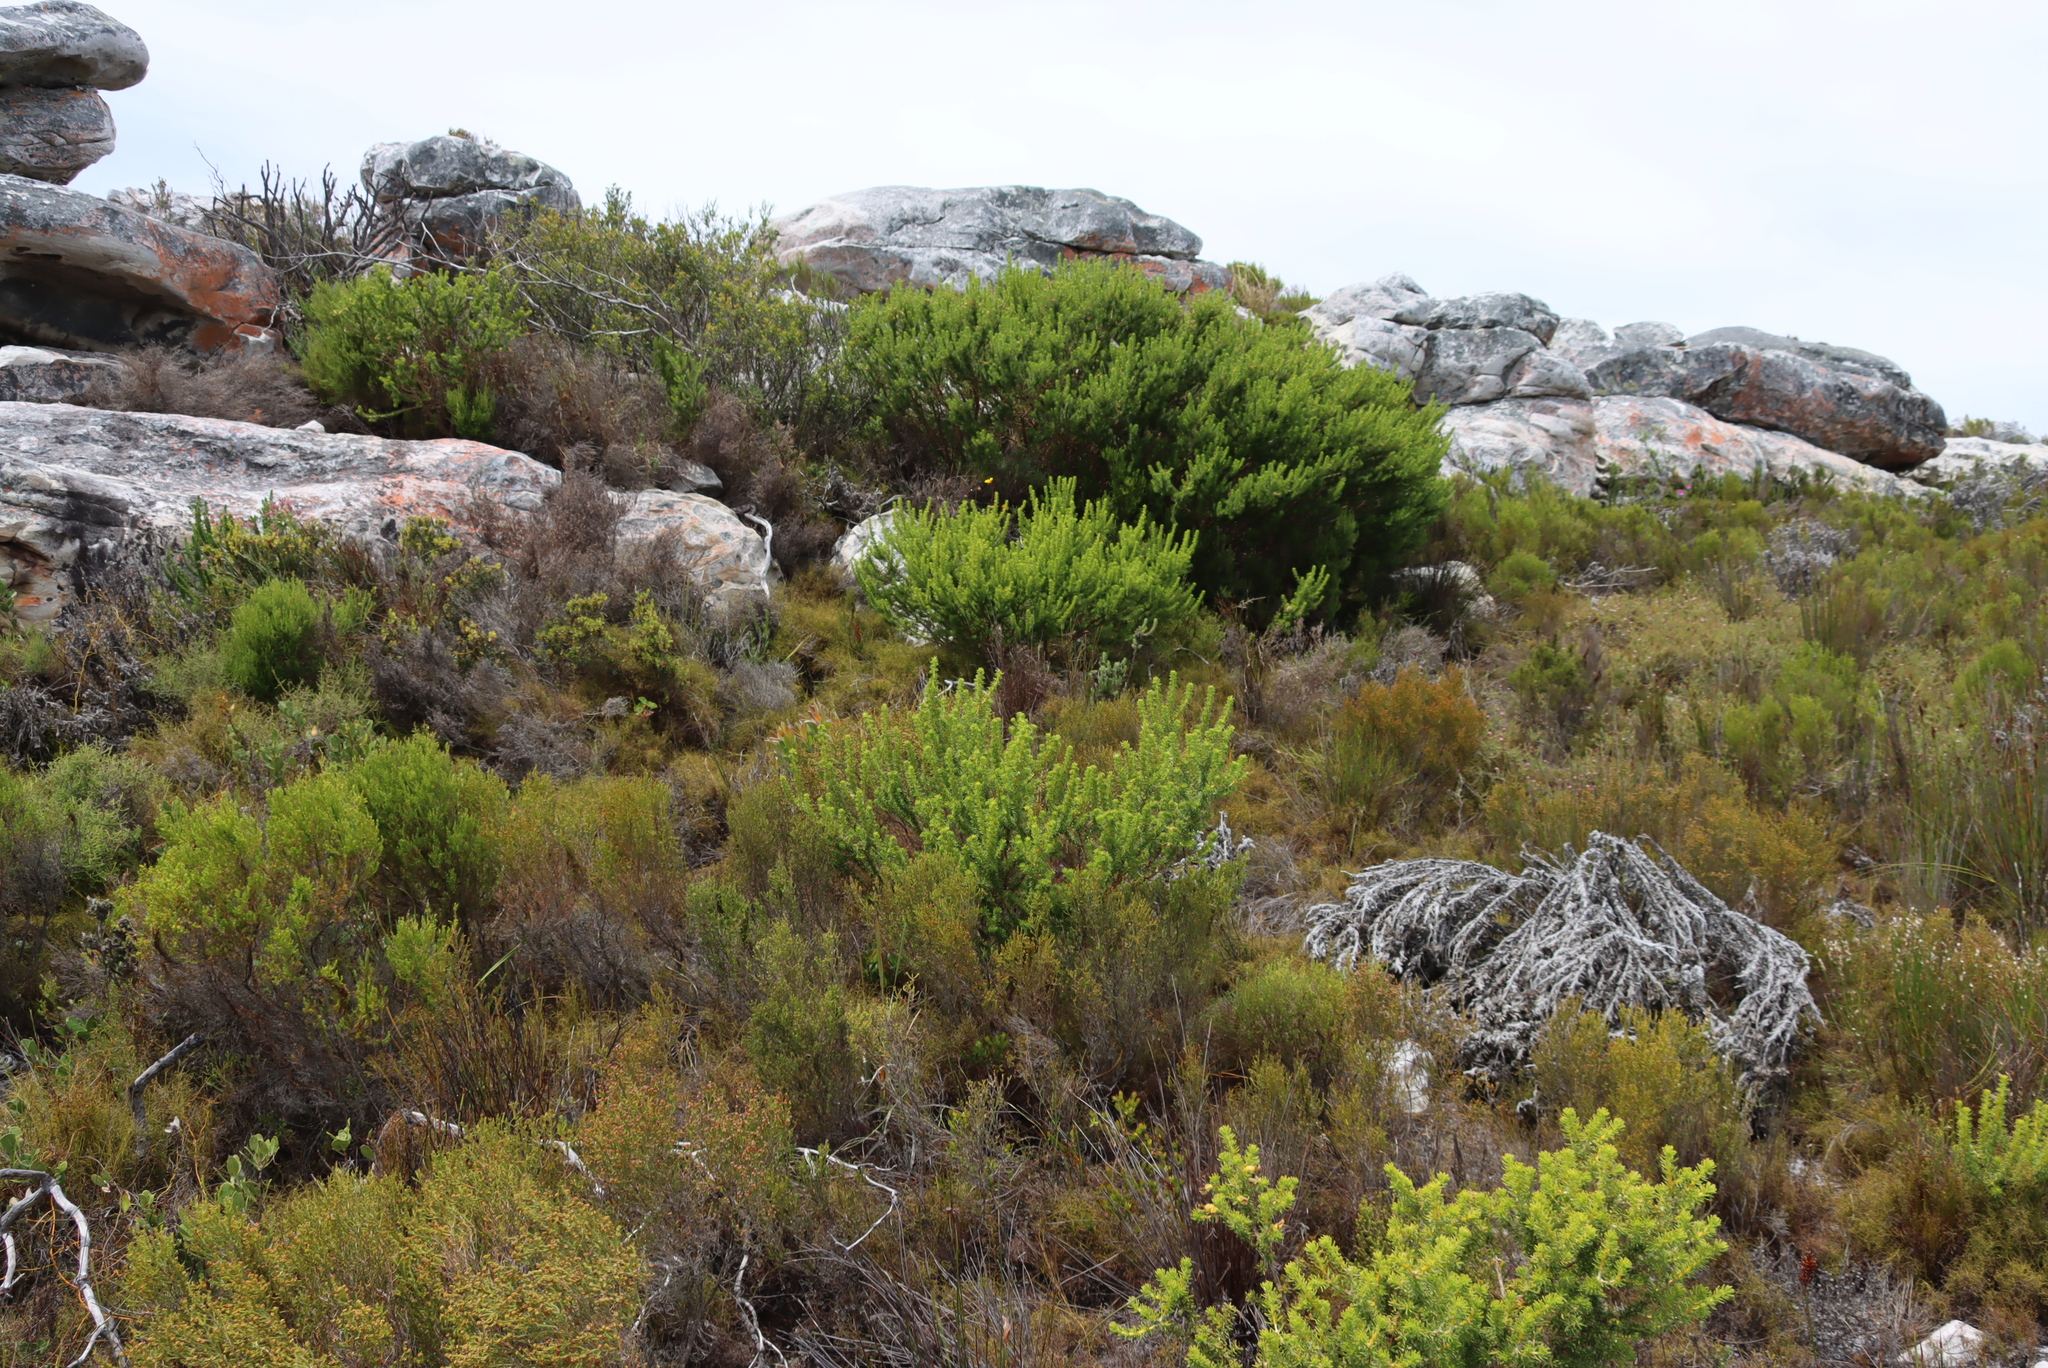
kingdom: Plantae
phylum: Tracheophyta
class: Magnoliopsida
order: Fabales
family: Fabaceae
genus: Aspalathus
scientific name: Aspalathus capensis
